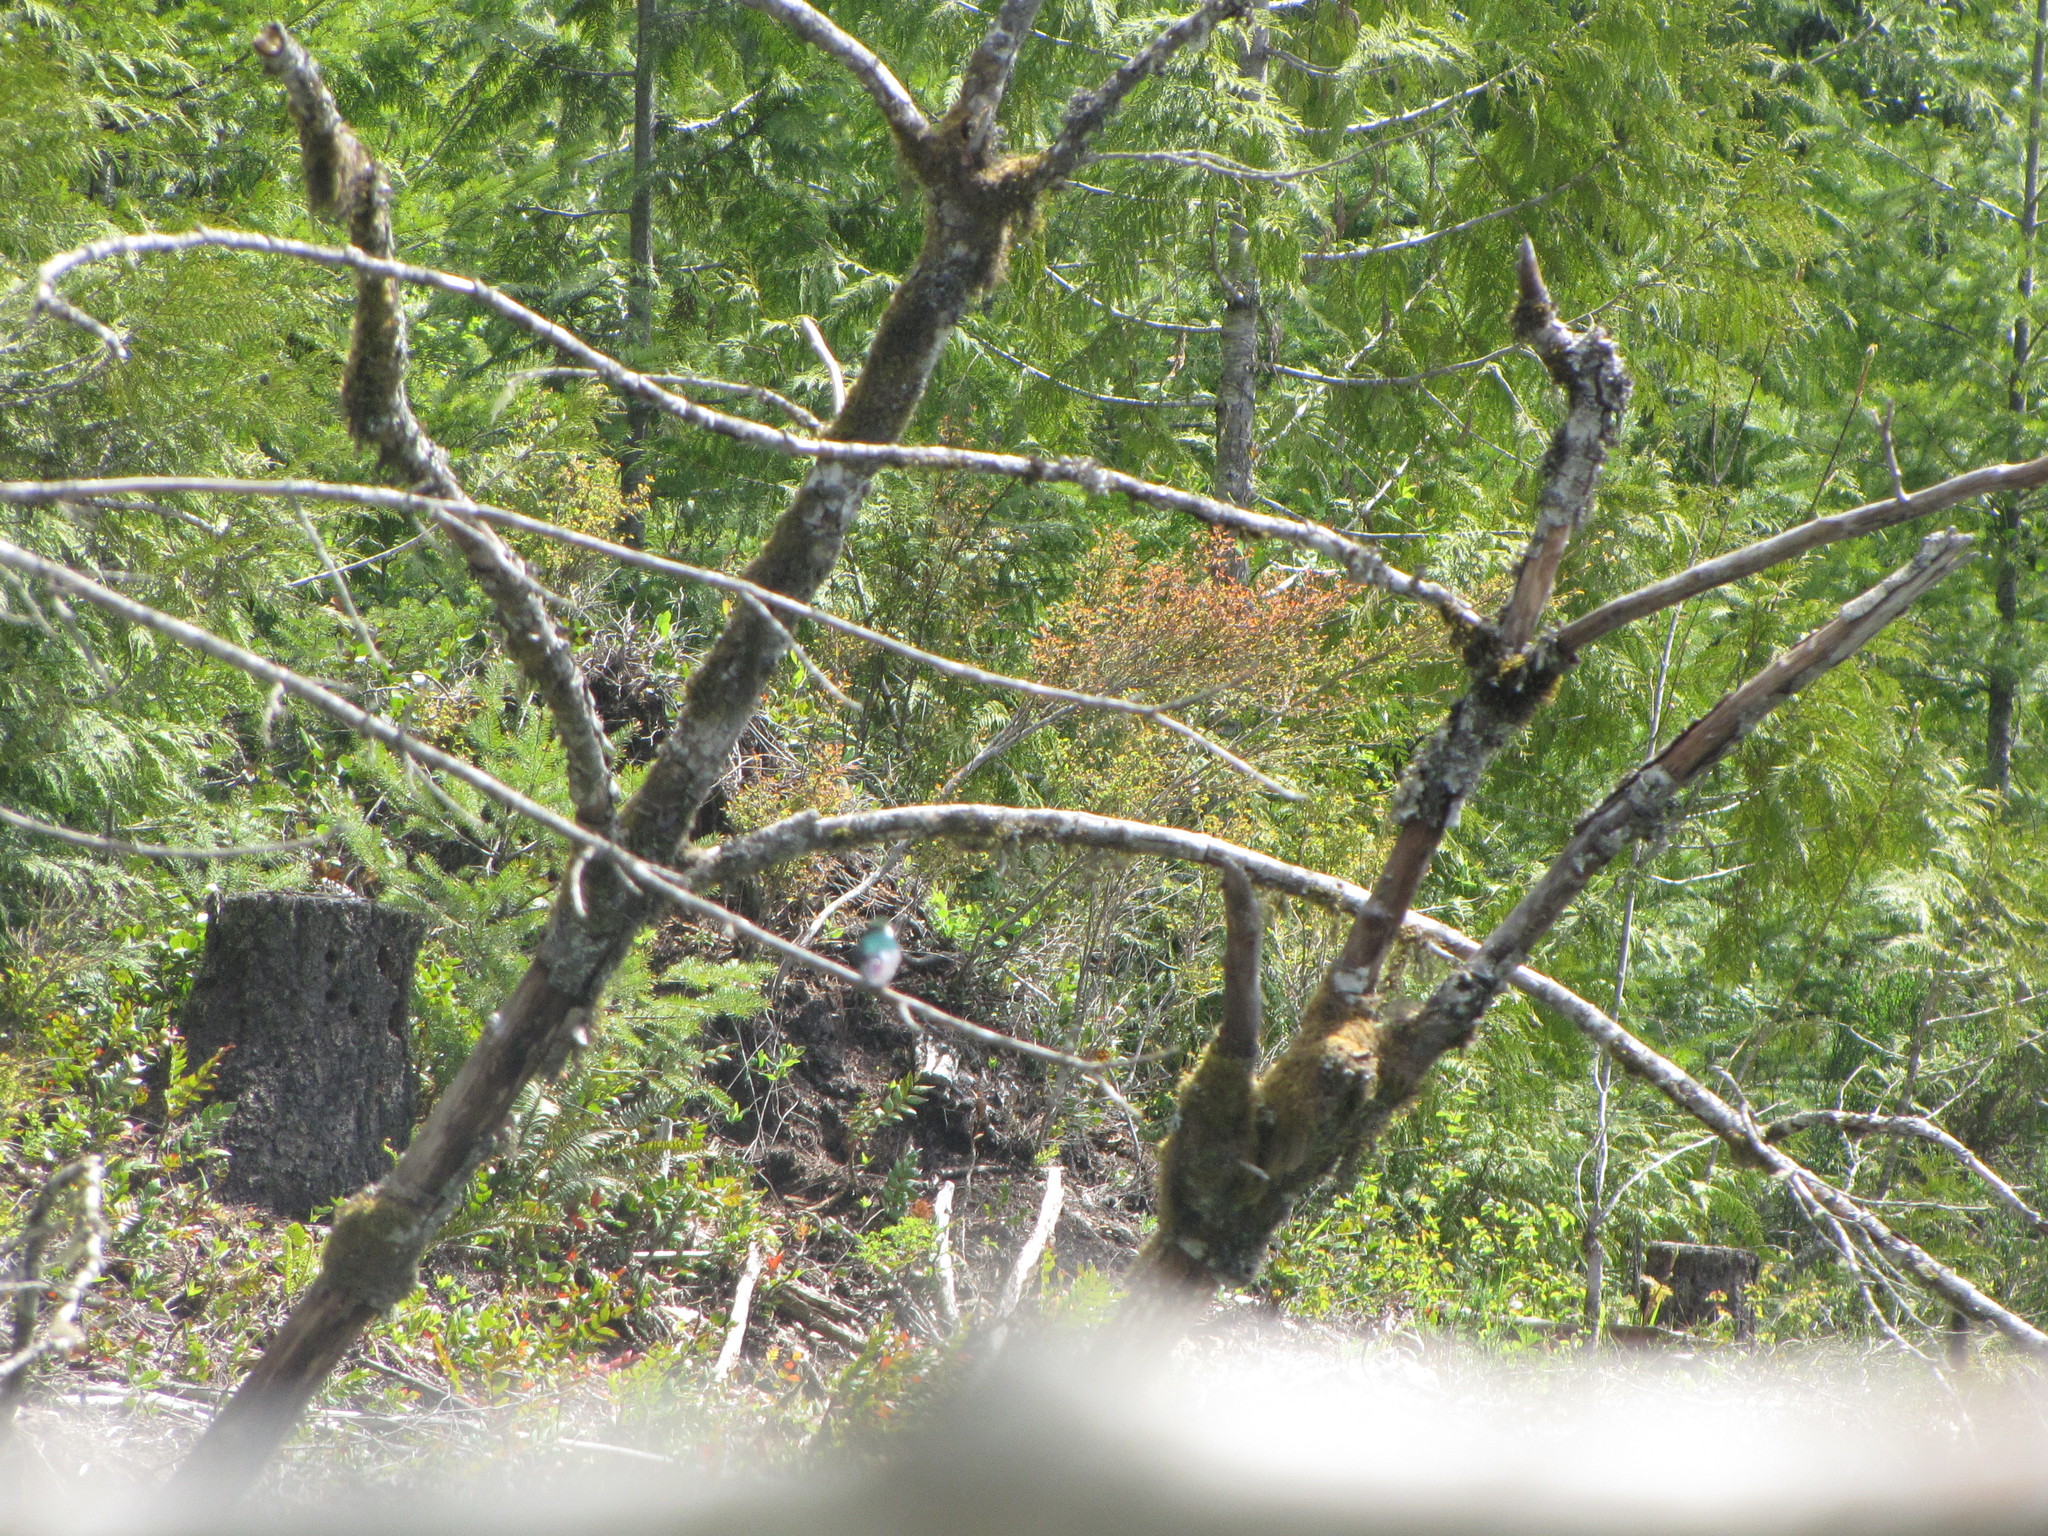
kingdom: Animalia
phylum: Chordata
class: Aves
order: Passeriformes
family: Hirundinidae
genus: Tachycineta
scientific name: Tachycineta thalassina
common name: Violet-green swallow
